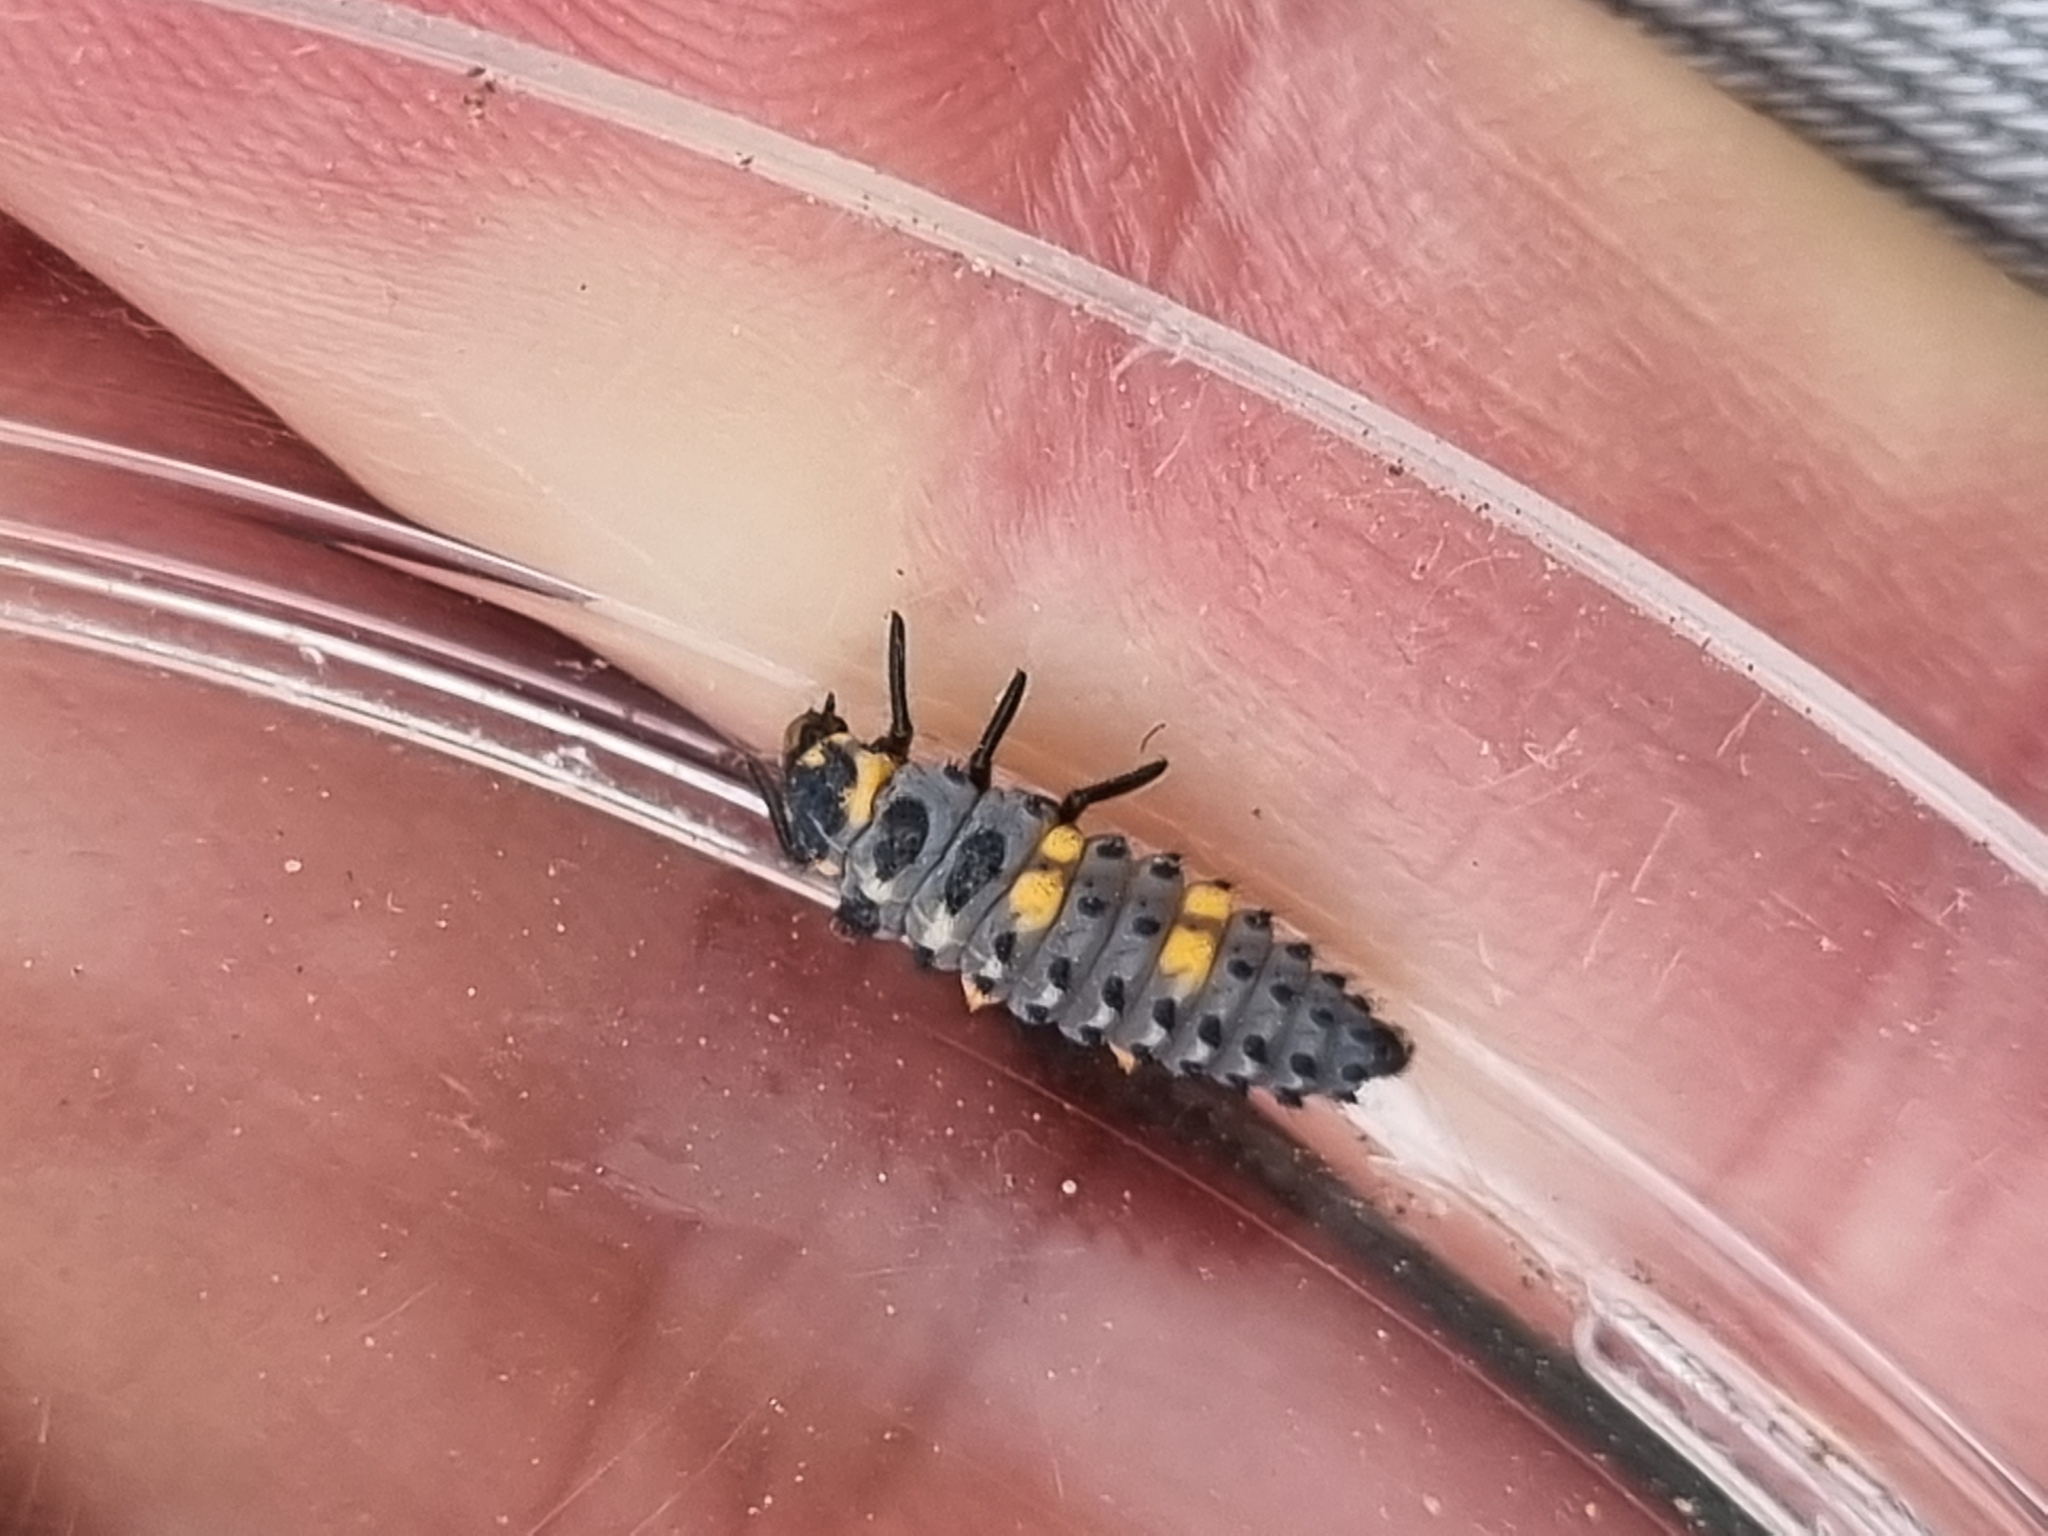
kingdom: Animalia
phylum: Arthropoda
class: Insecta
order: Coleoptera
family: Coccinellidae
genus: Coccinella
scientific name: Coccinella septempunctata
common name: Sevenspotted lady beetle
